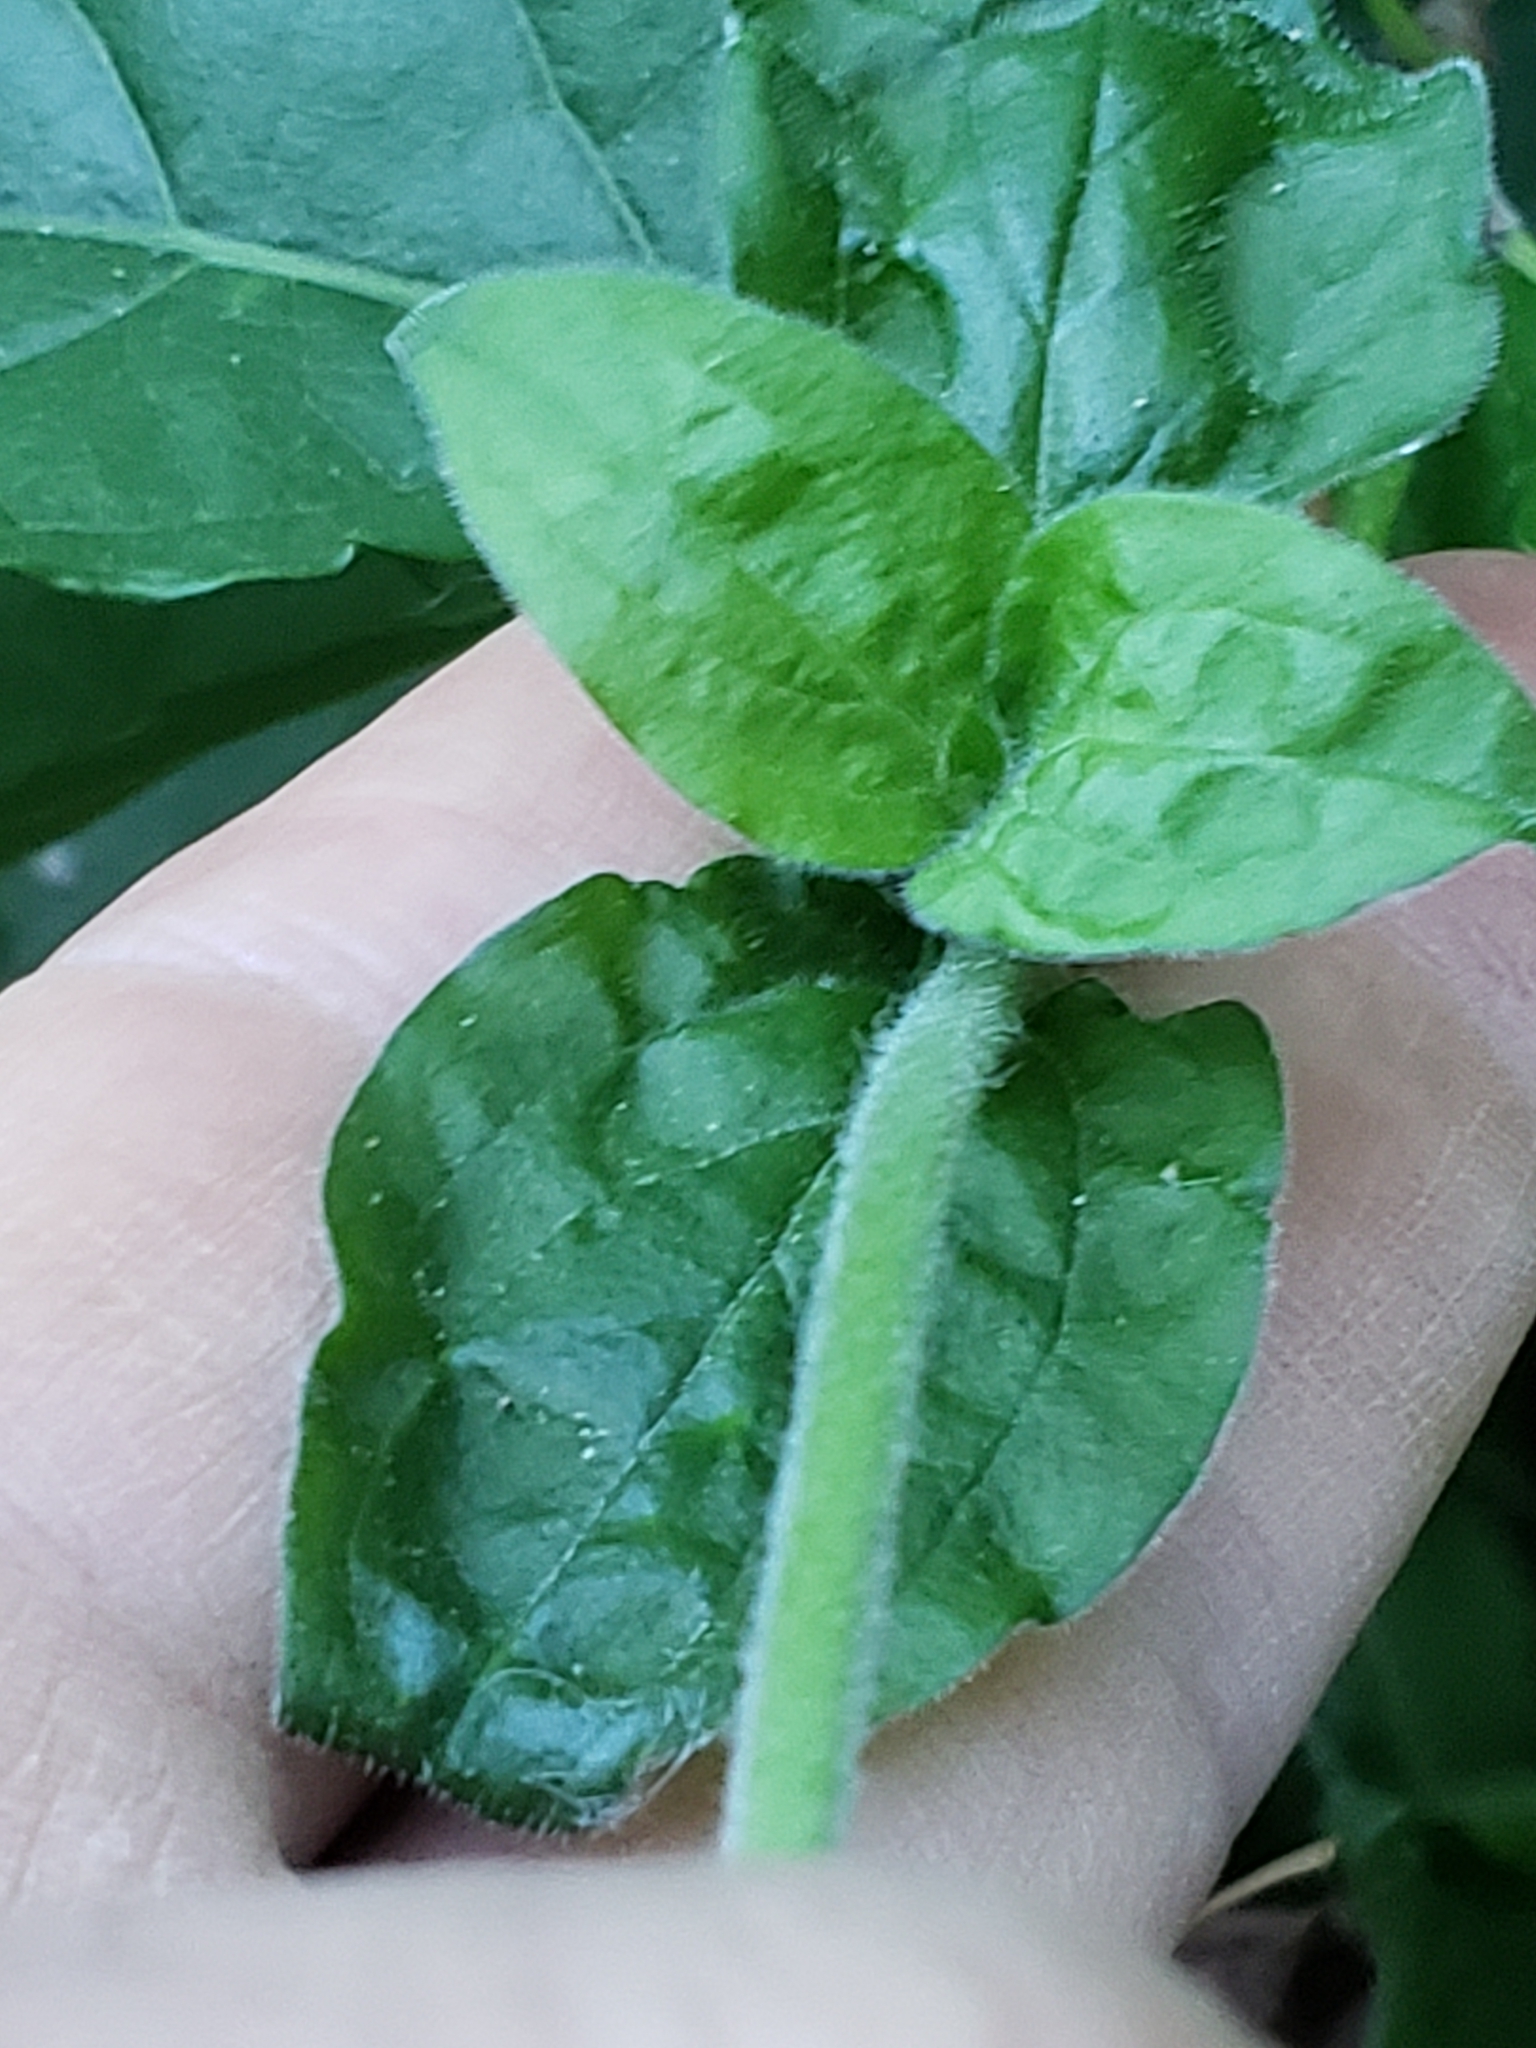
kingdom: Plantae
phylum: Tracheophyta
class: Magnoliopsida
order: Caryophyllales
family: Caryophyllaceae
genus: Silene
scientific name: Silene latifolia
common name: White campion
